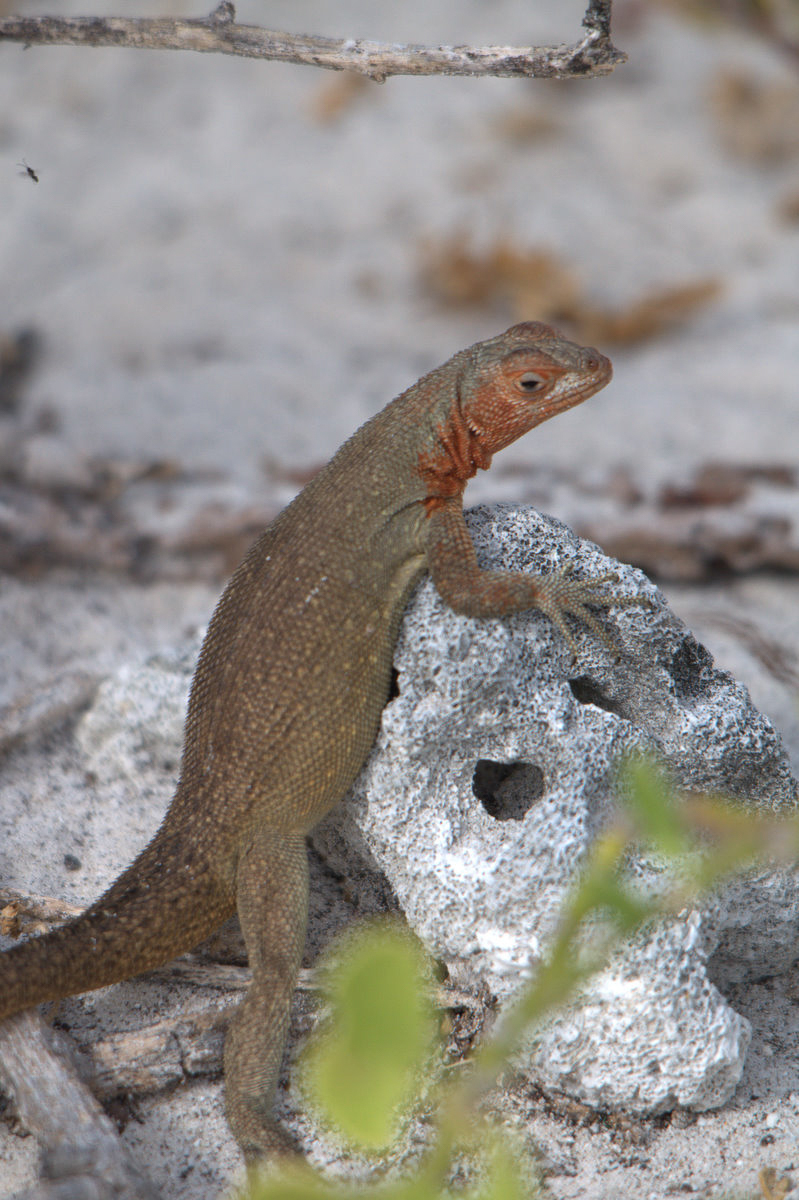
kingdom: Animalia
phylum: Chordata
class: Squamata
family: Tropiduridae
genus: Microlophus
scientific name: Microlophus delanonis
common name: Hood lava lizard
